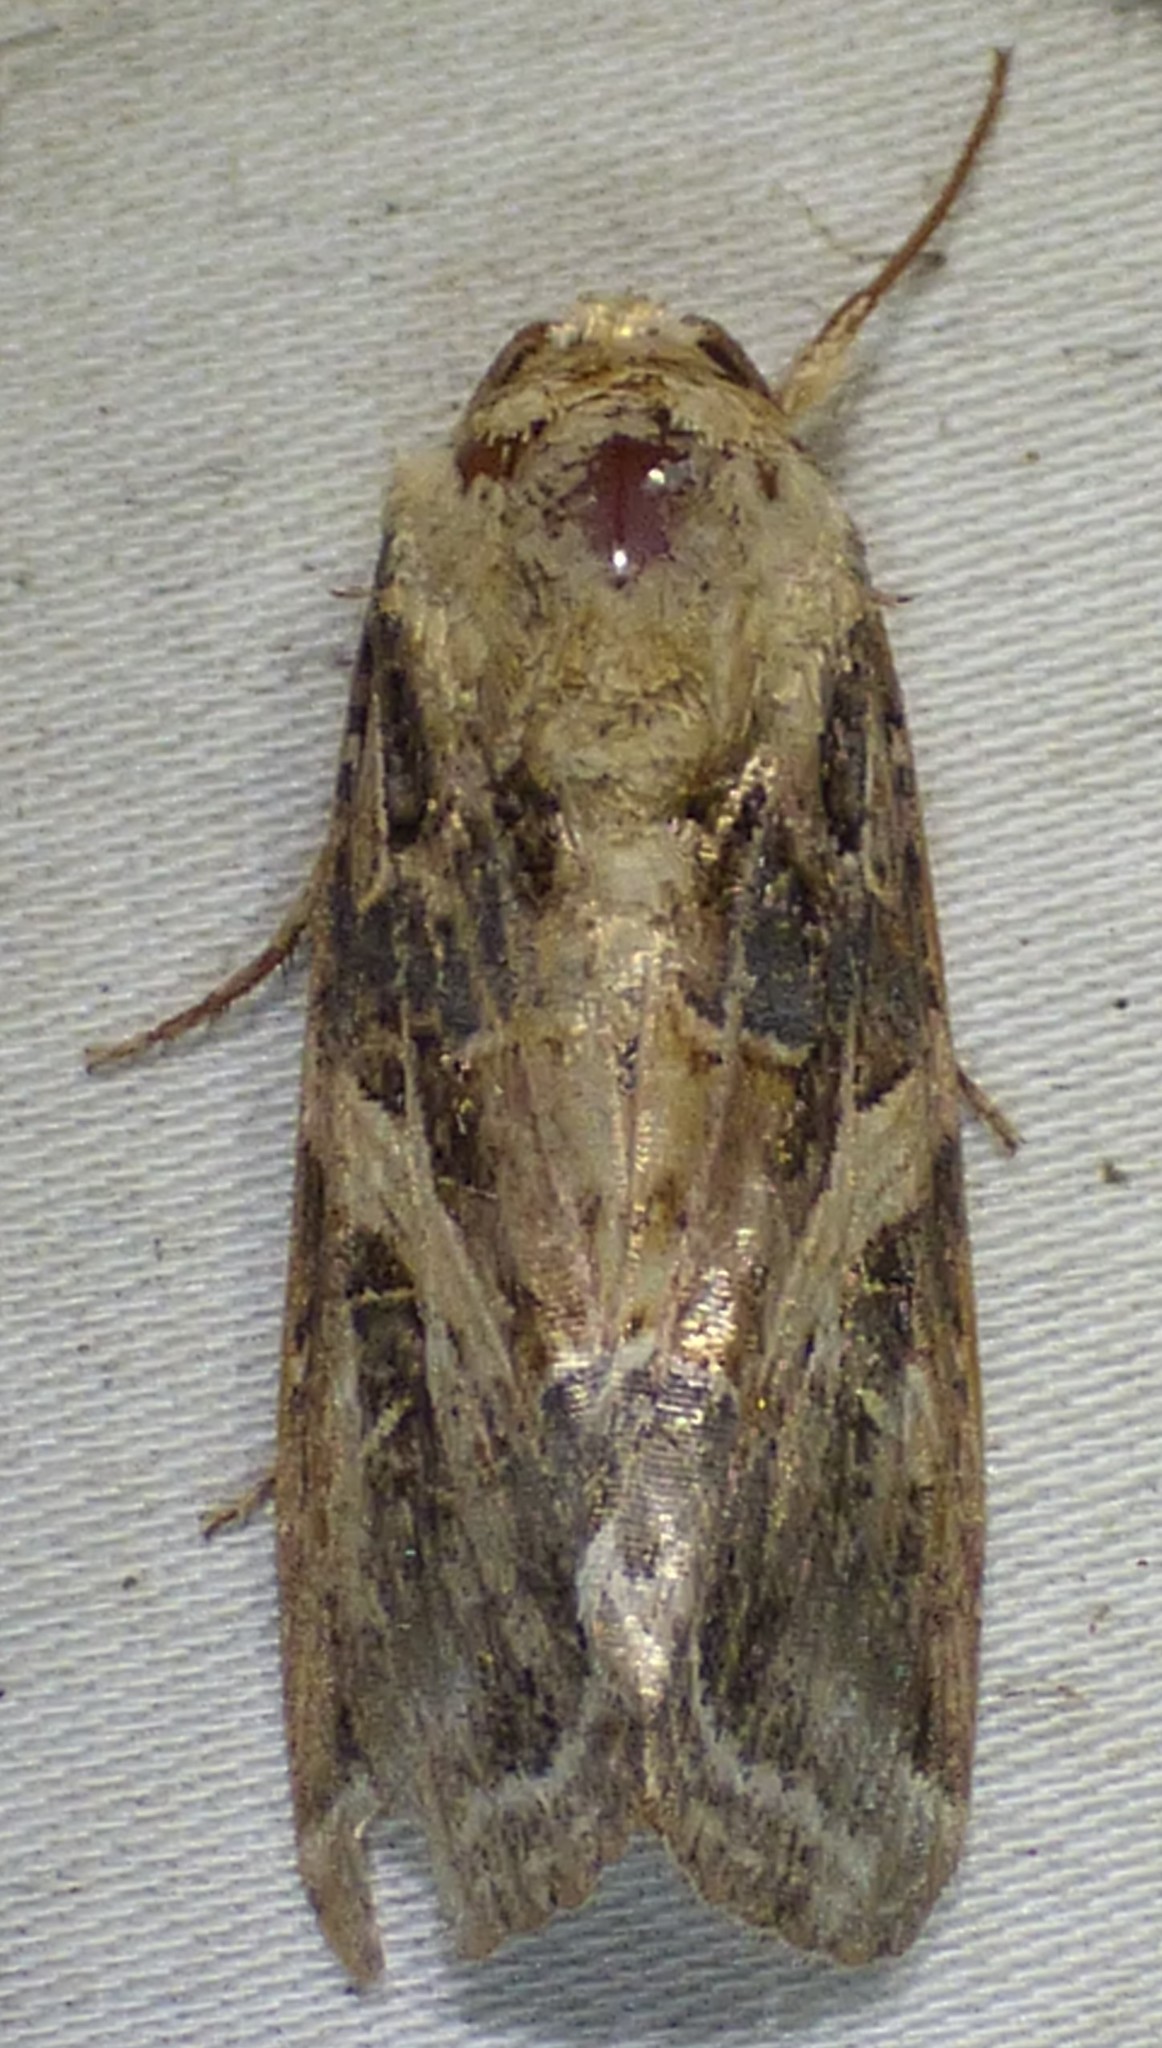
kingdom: Animalia
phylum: Arthropoda
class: Insecta
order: Lepidoptera
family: Noctuidae
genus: Spodoptera
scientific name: Spodoptera ornithogalli
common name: Yellow-striped armyworm
